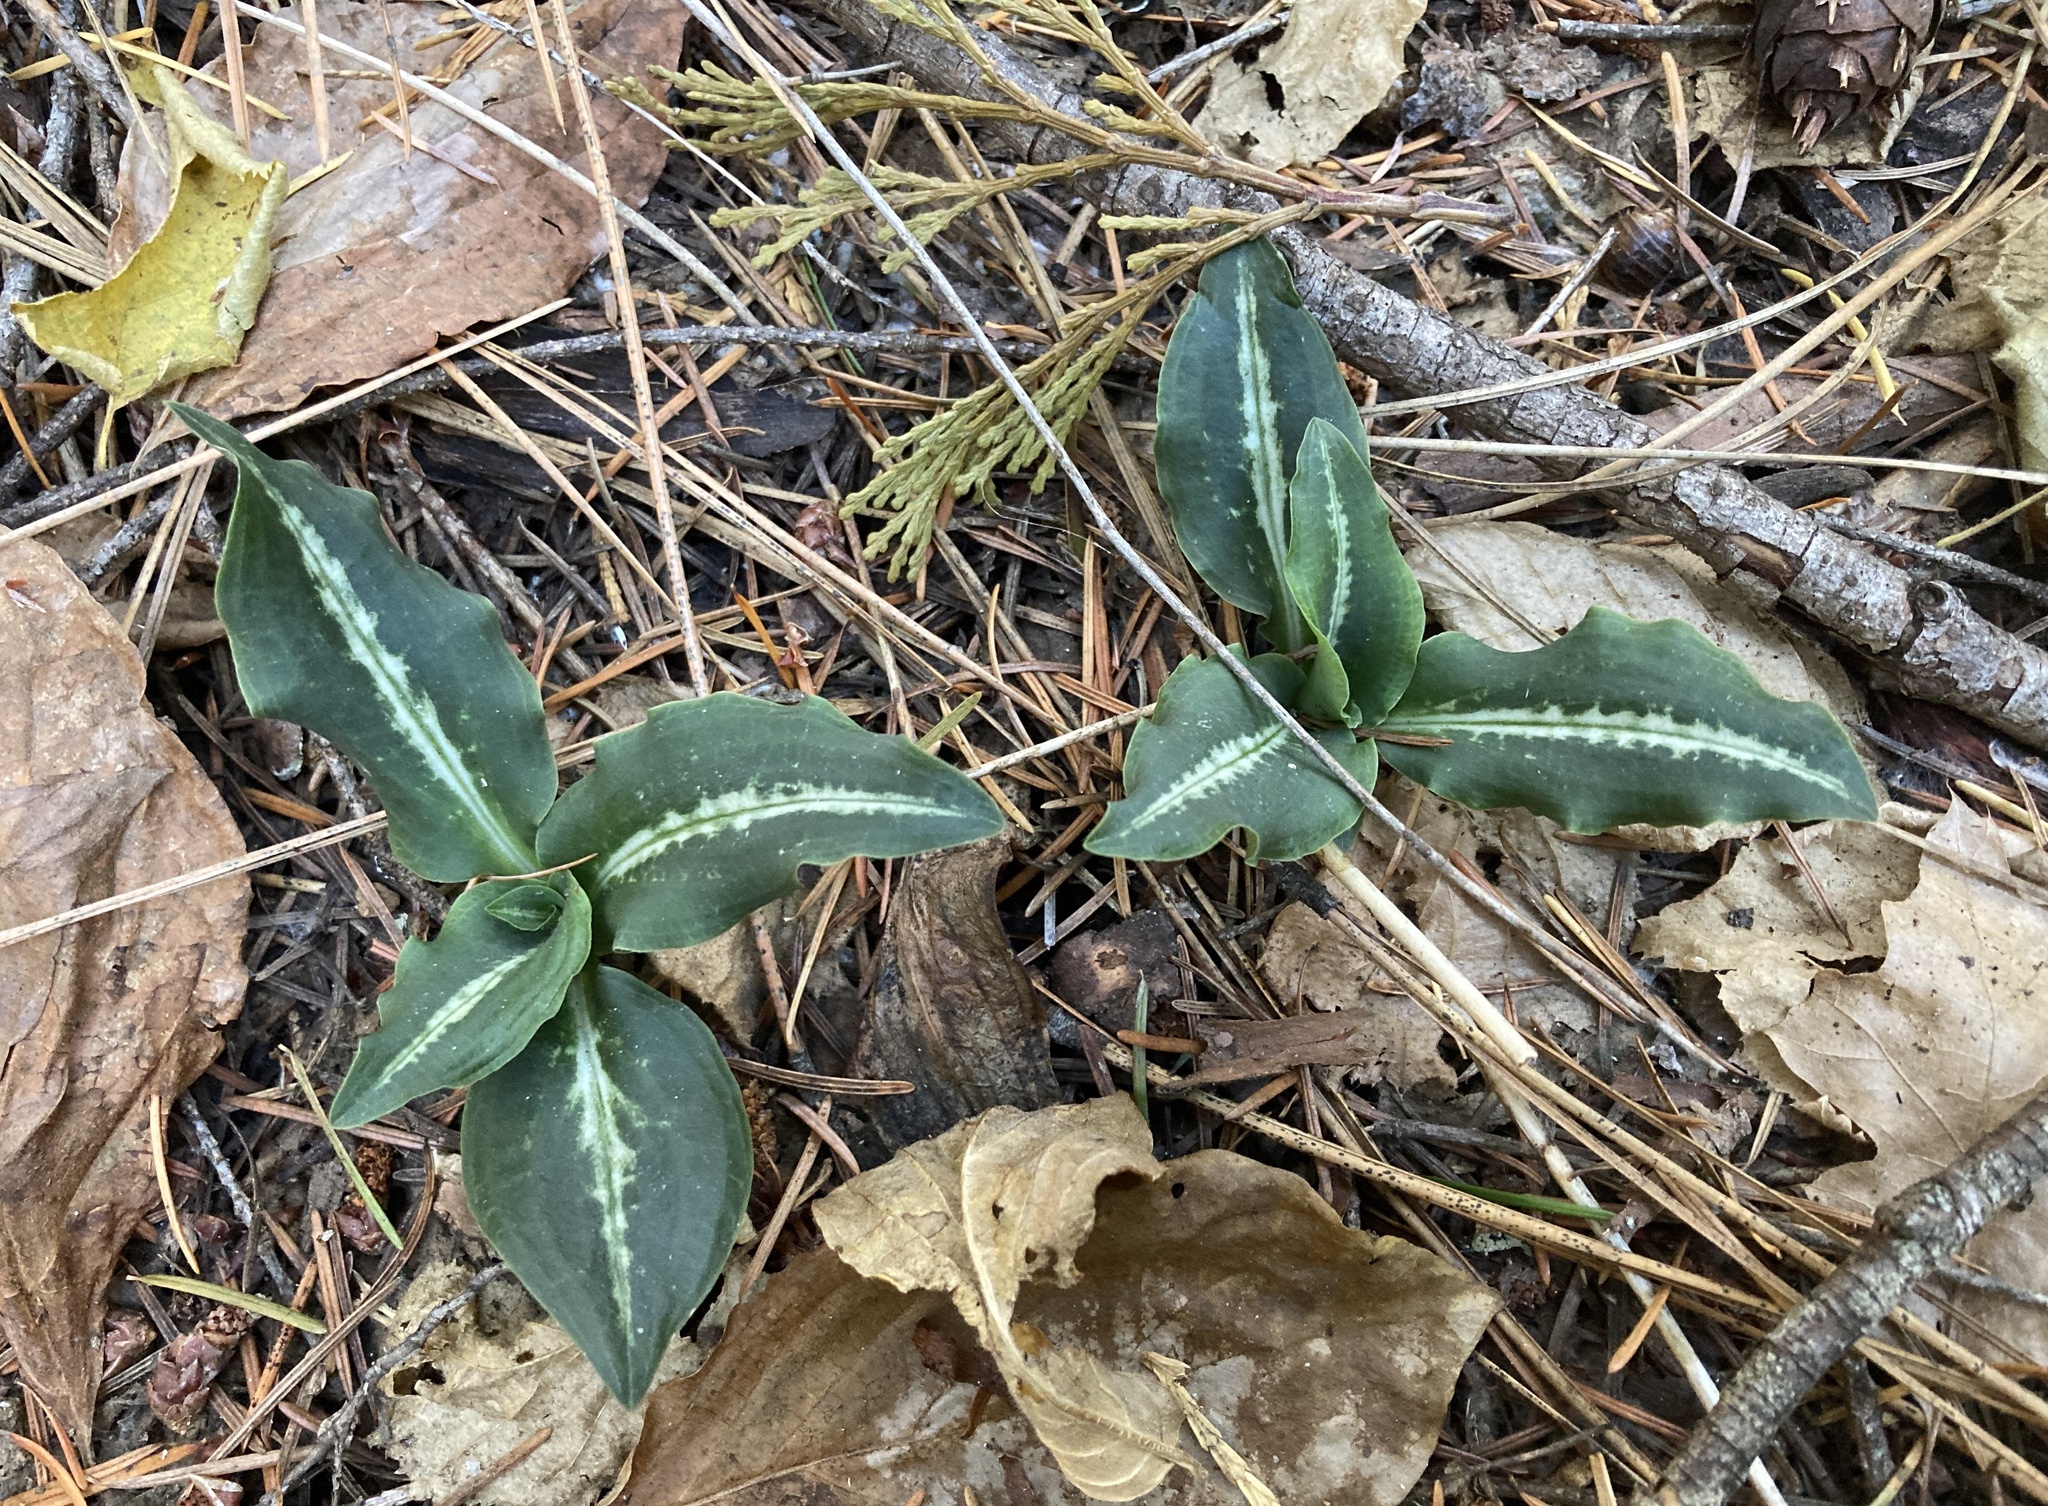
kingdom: Plantae
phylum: Tracheophyta
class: Liliopsida
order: Asparagales
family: Orchidaceae
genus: Goodyera
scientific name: Goodyera oblongifolia
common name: Giant rattlesnake-plantain
